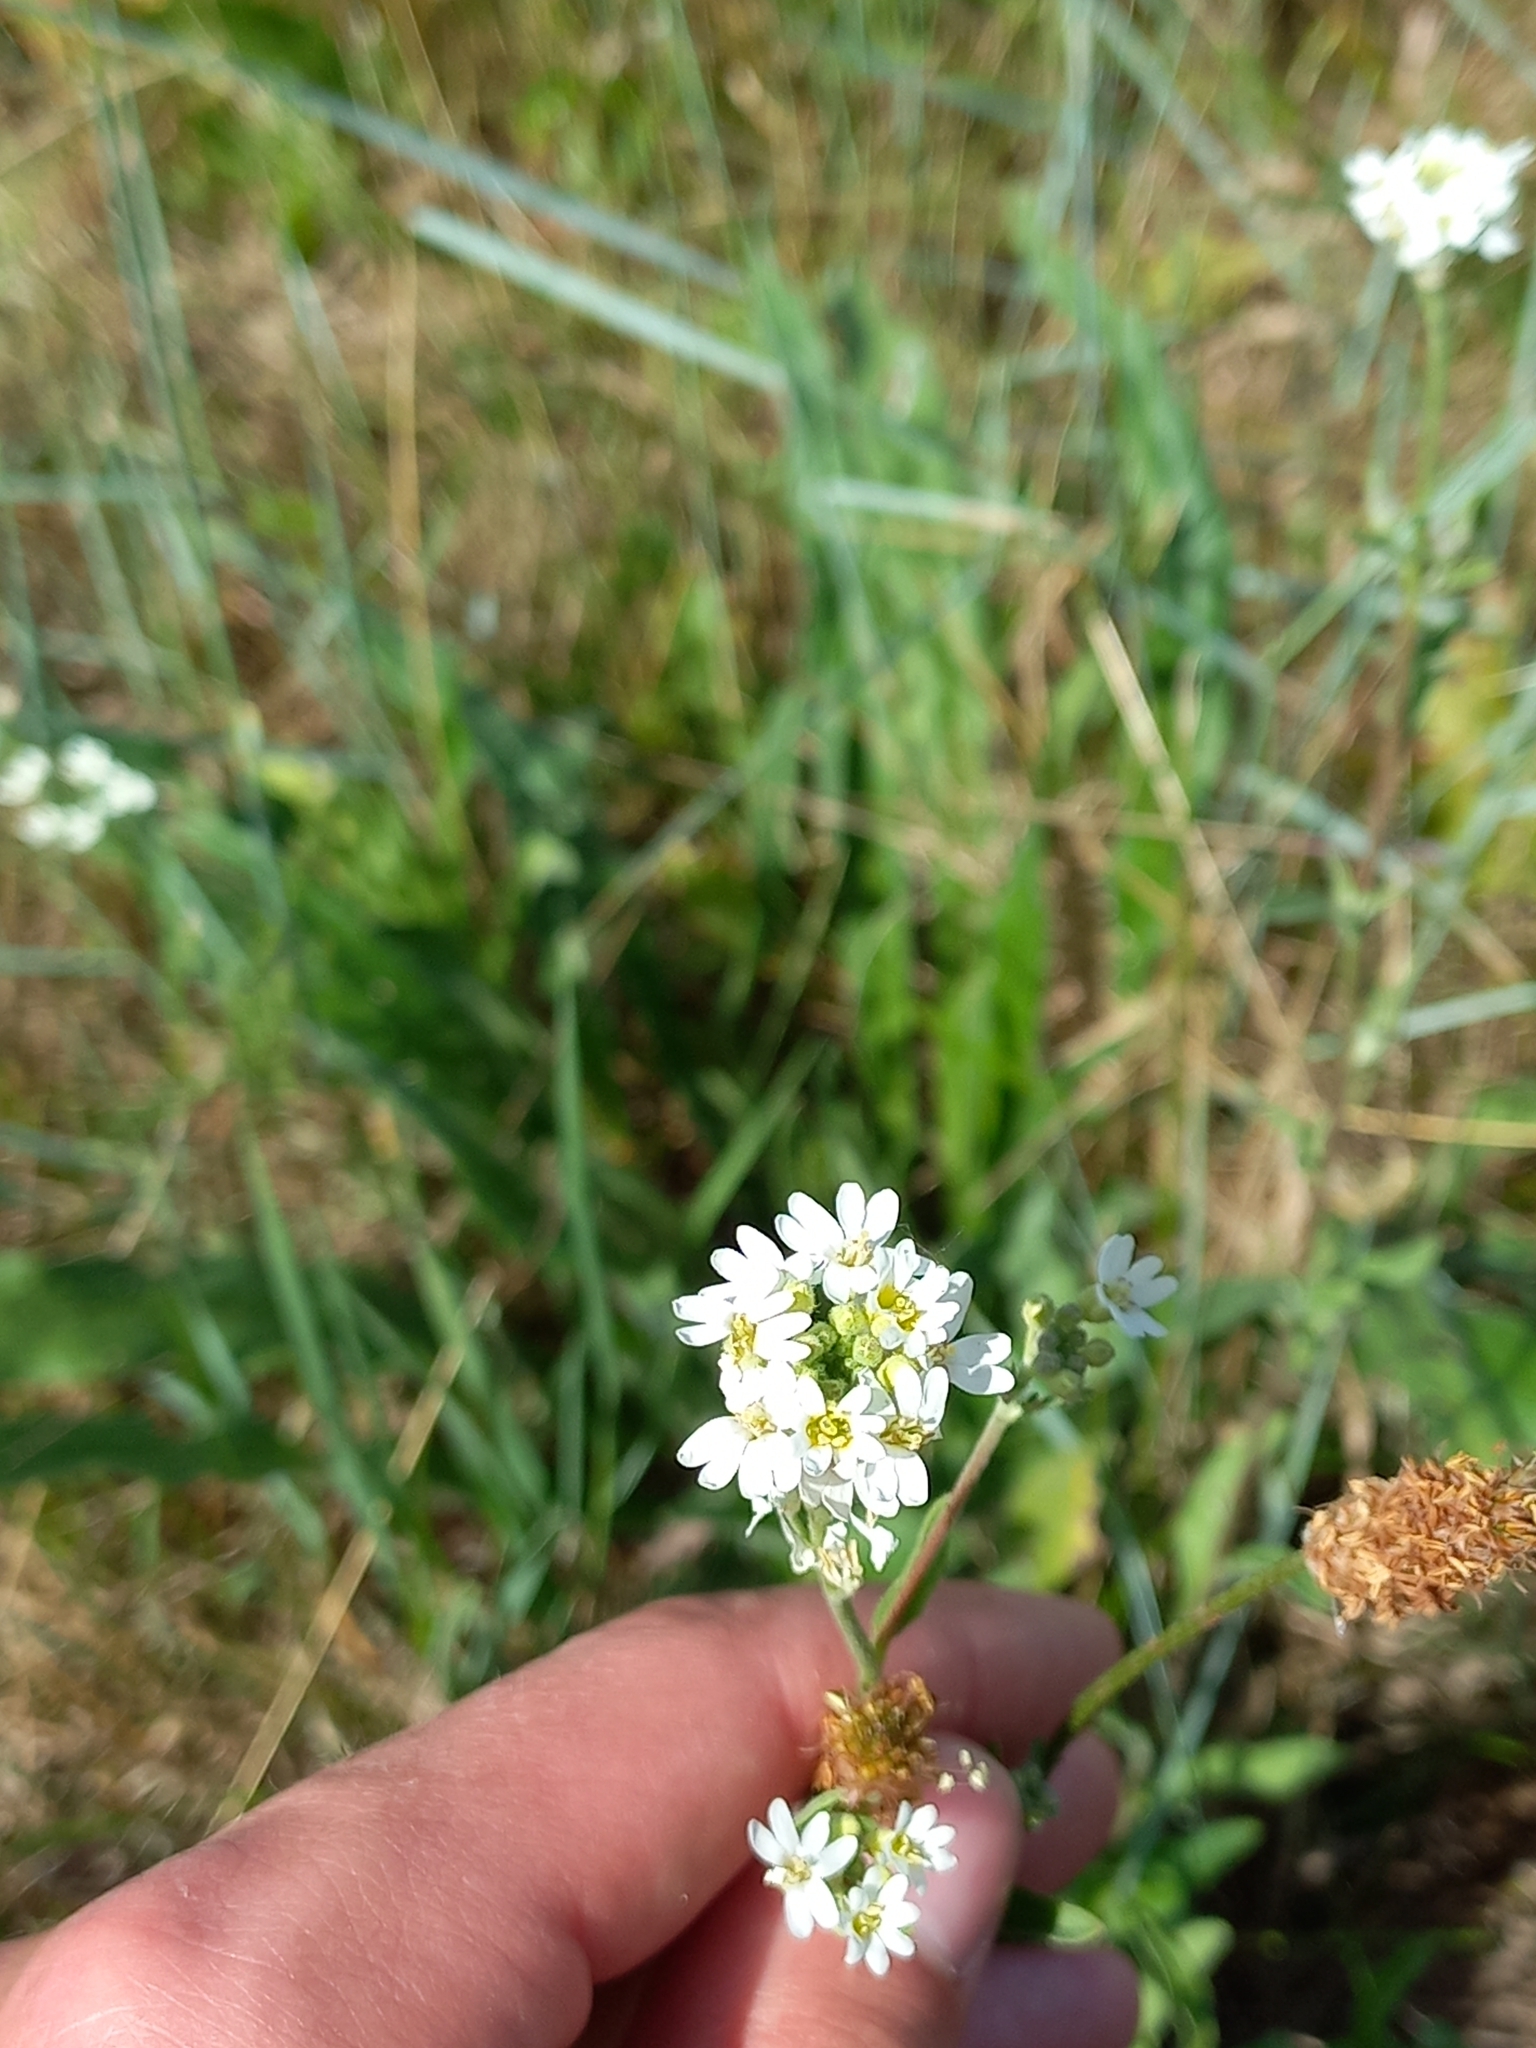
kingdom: Plantae
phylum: Tracheophyta
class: Magnoliopsida
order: Brassicales
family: Brassicaceae
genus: Berteroa
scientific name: Berteroa incana
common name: Hoary alison
